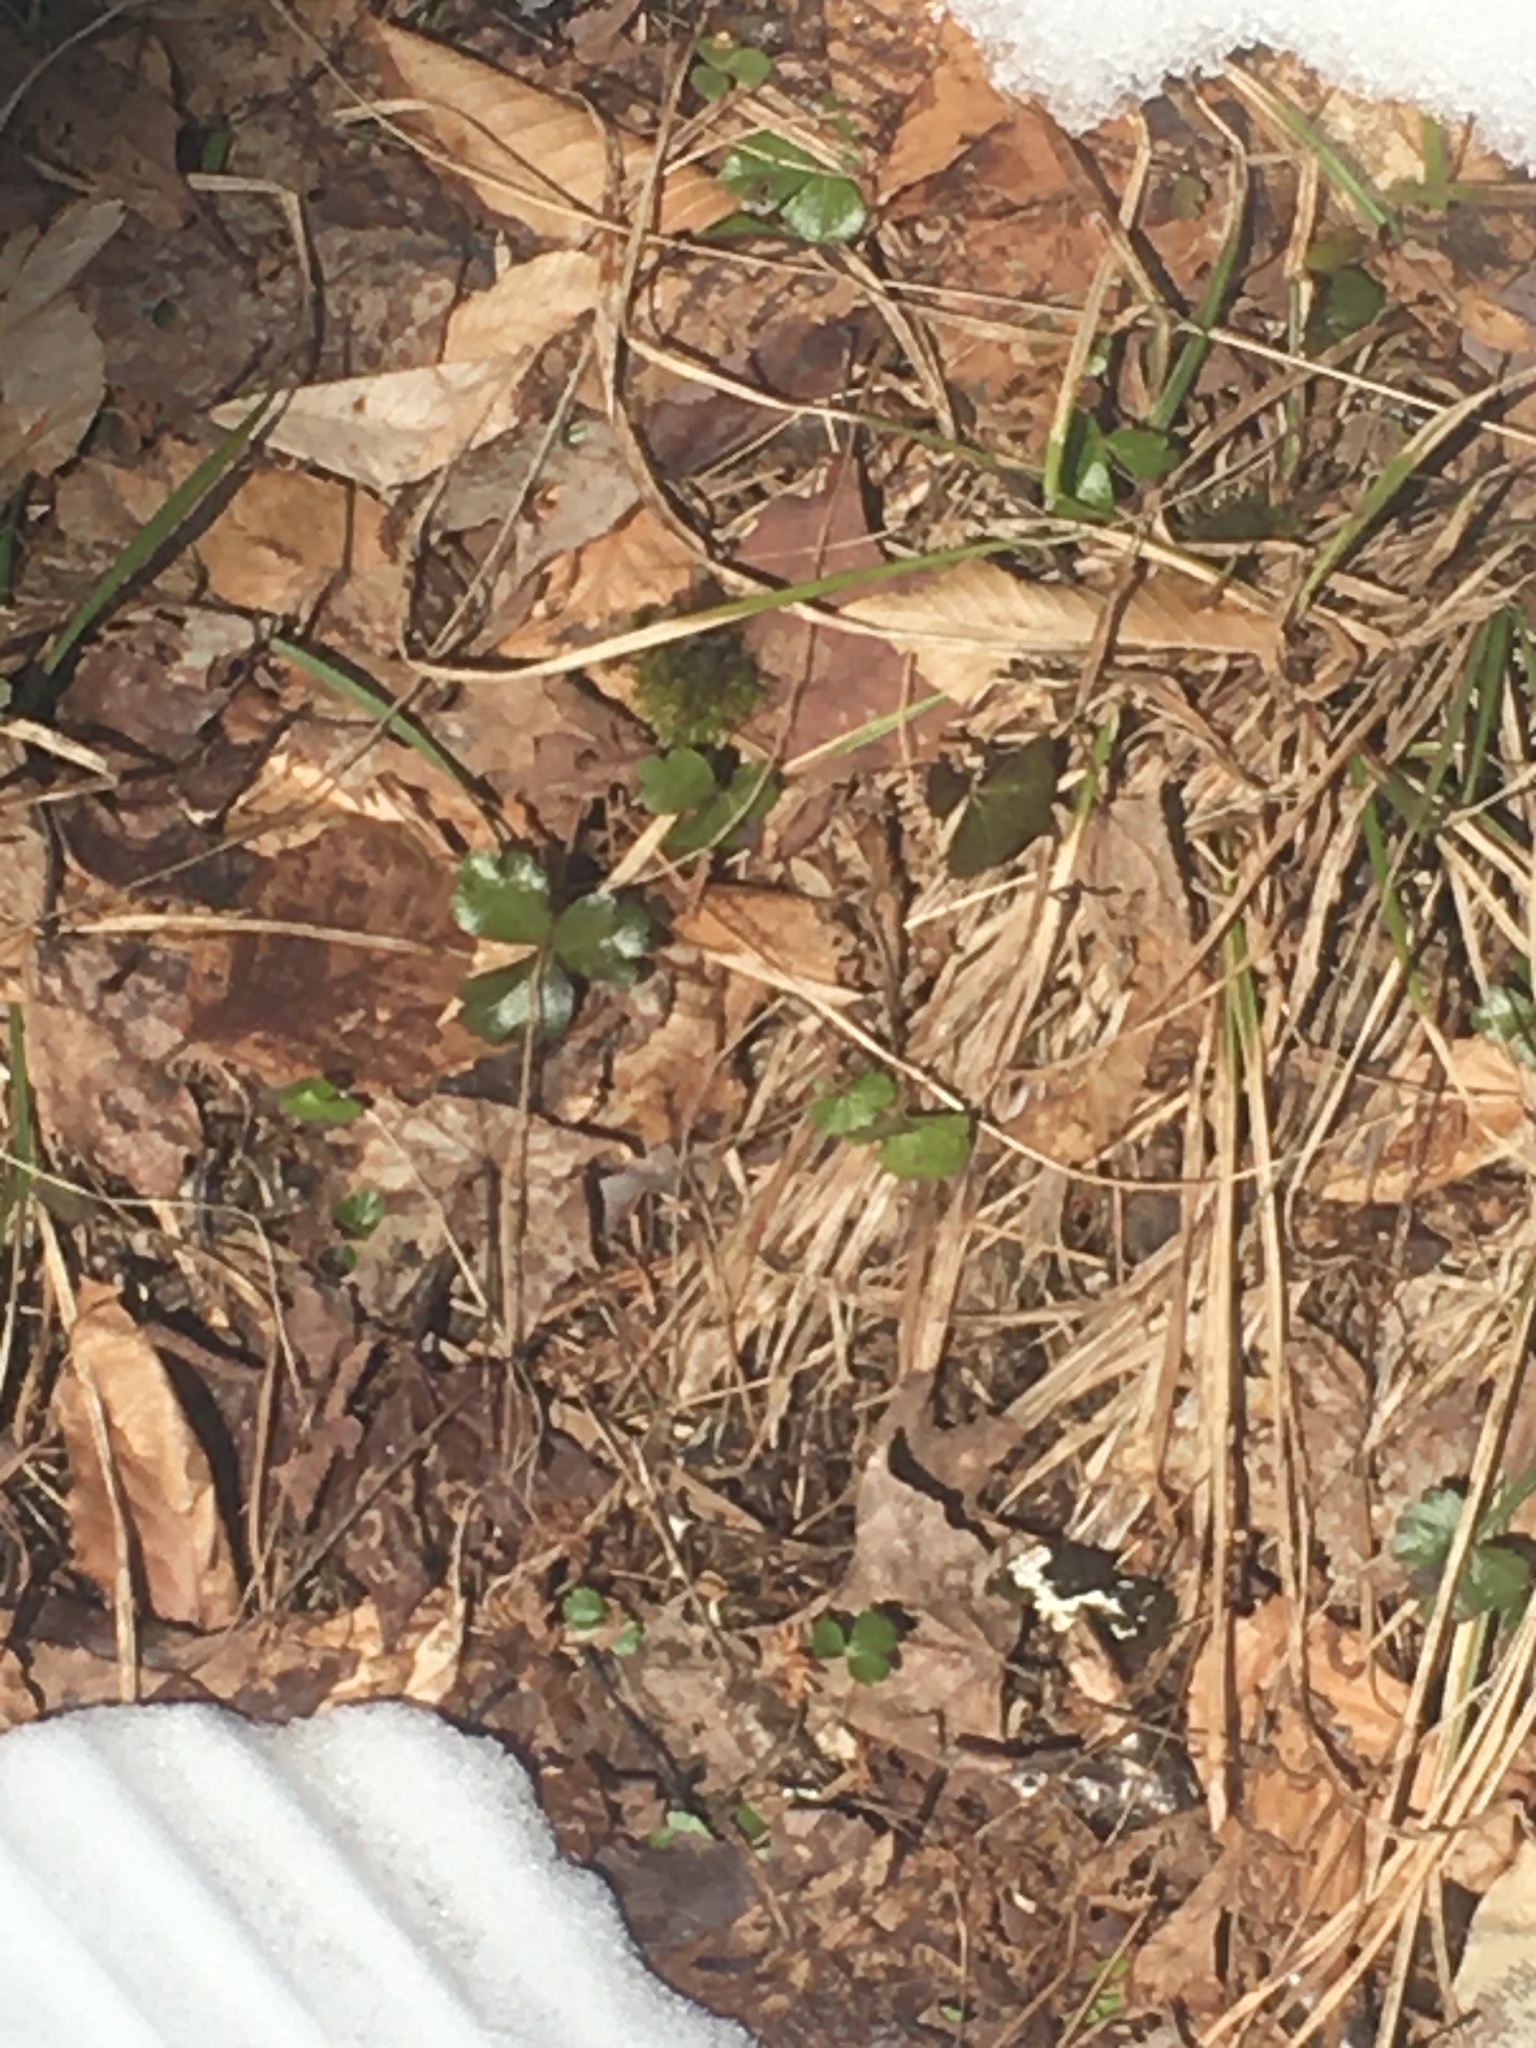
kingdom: Plantae
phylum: Tracheophyta
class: Magnoliopsida
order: Ranunculales
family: Ranunculaceae
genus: Coptis
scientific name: Coptis trifolia
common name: Canker-root
